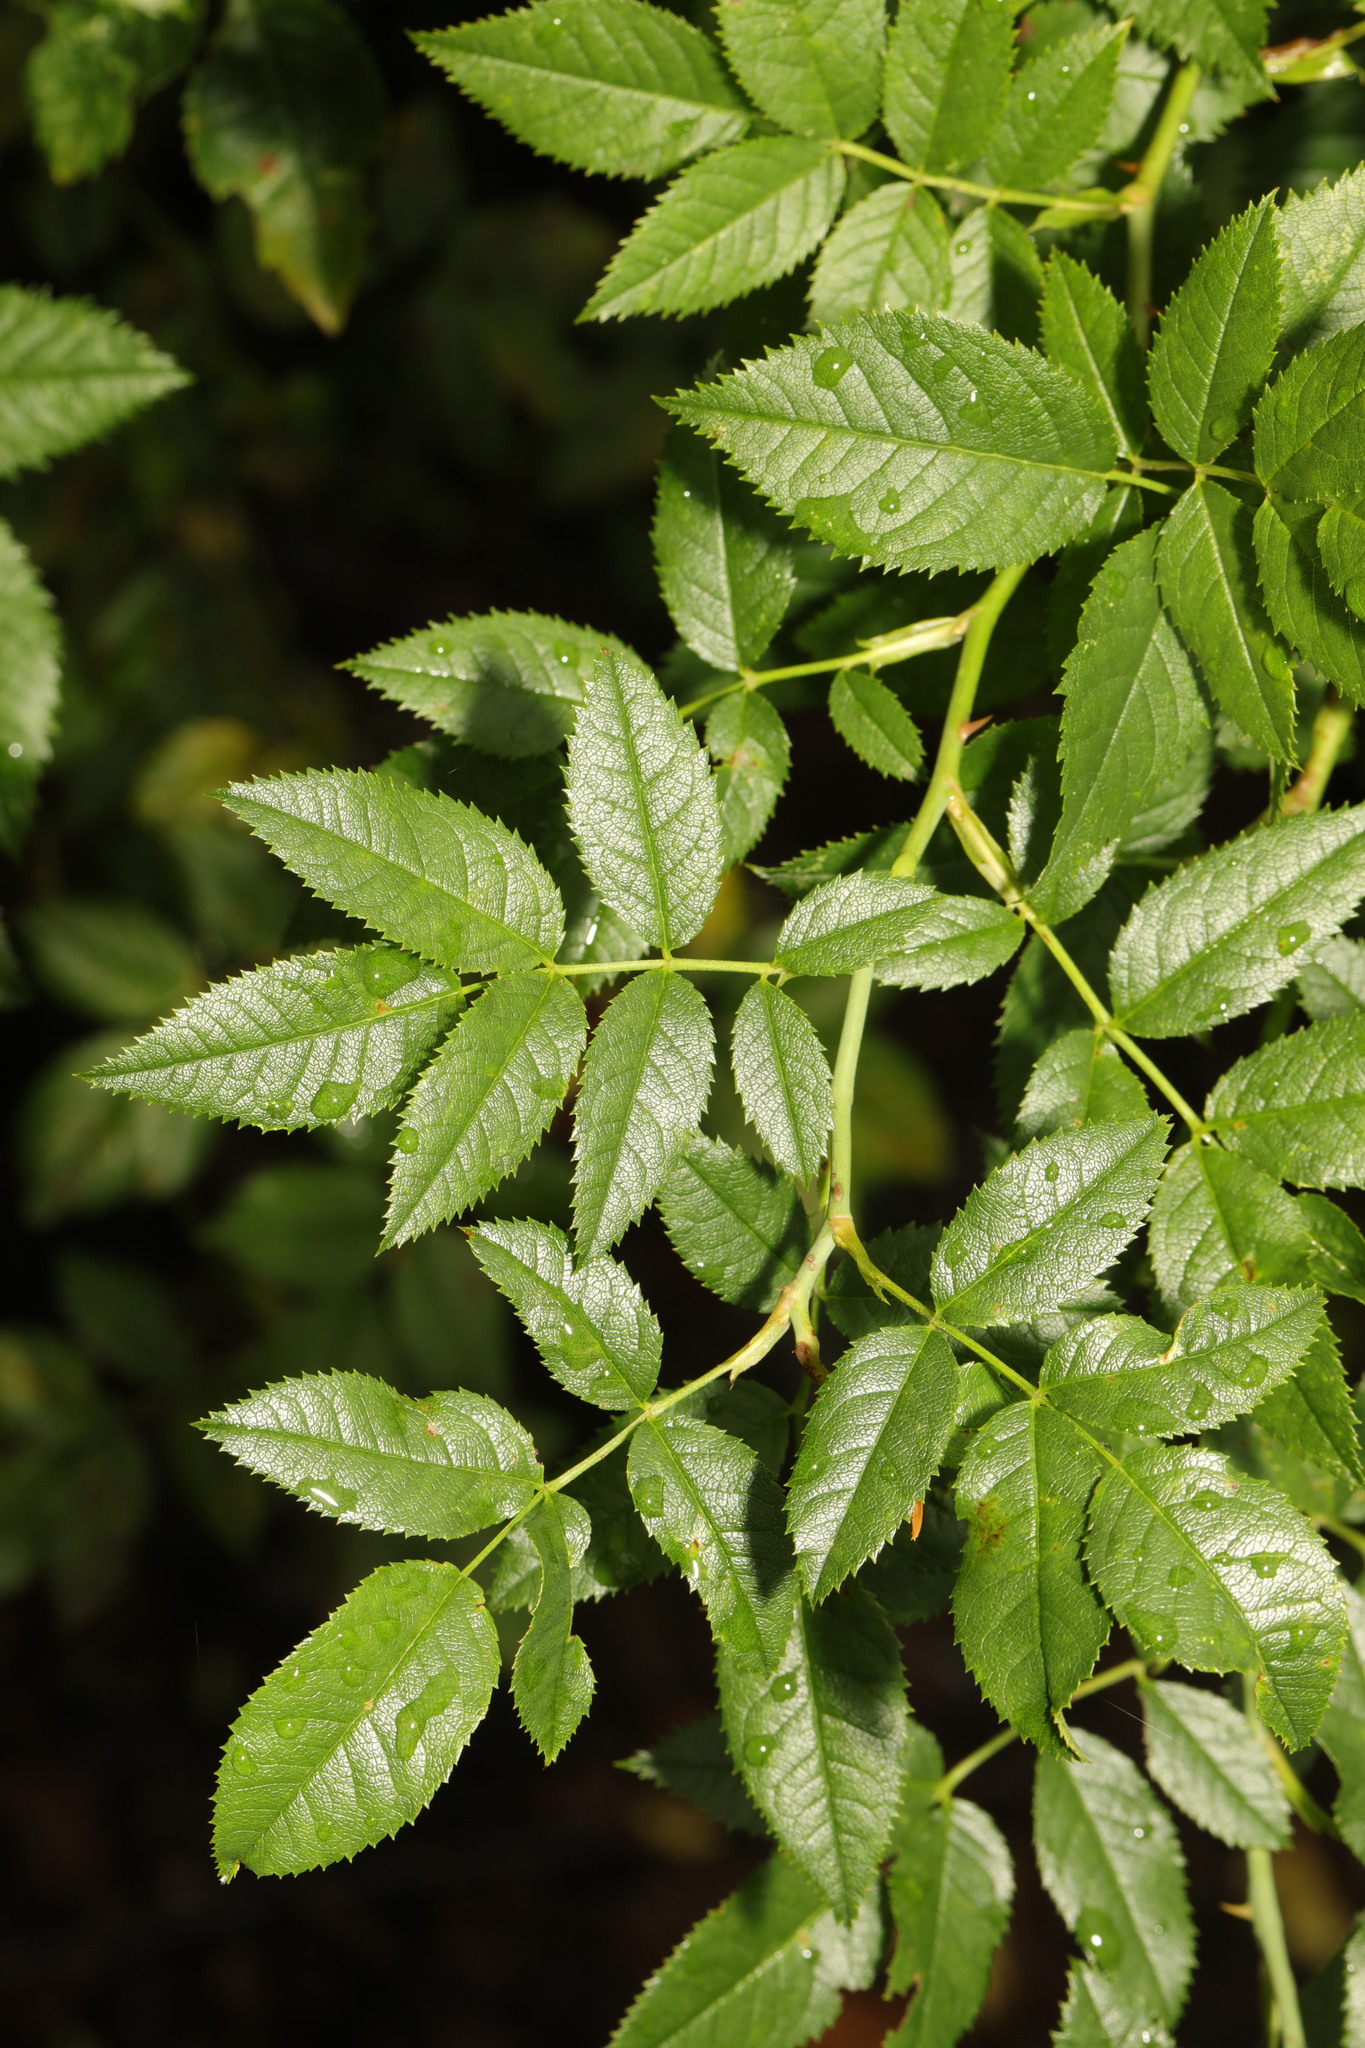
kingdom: Plantae
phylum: Tracheophyta
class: Magnoliopsida
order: Rosales
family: Rosaceae
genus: Rosa
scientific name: Rosa canina
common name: Dog rose
